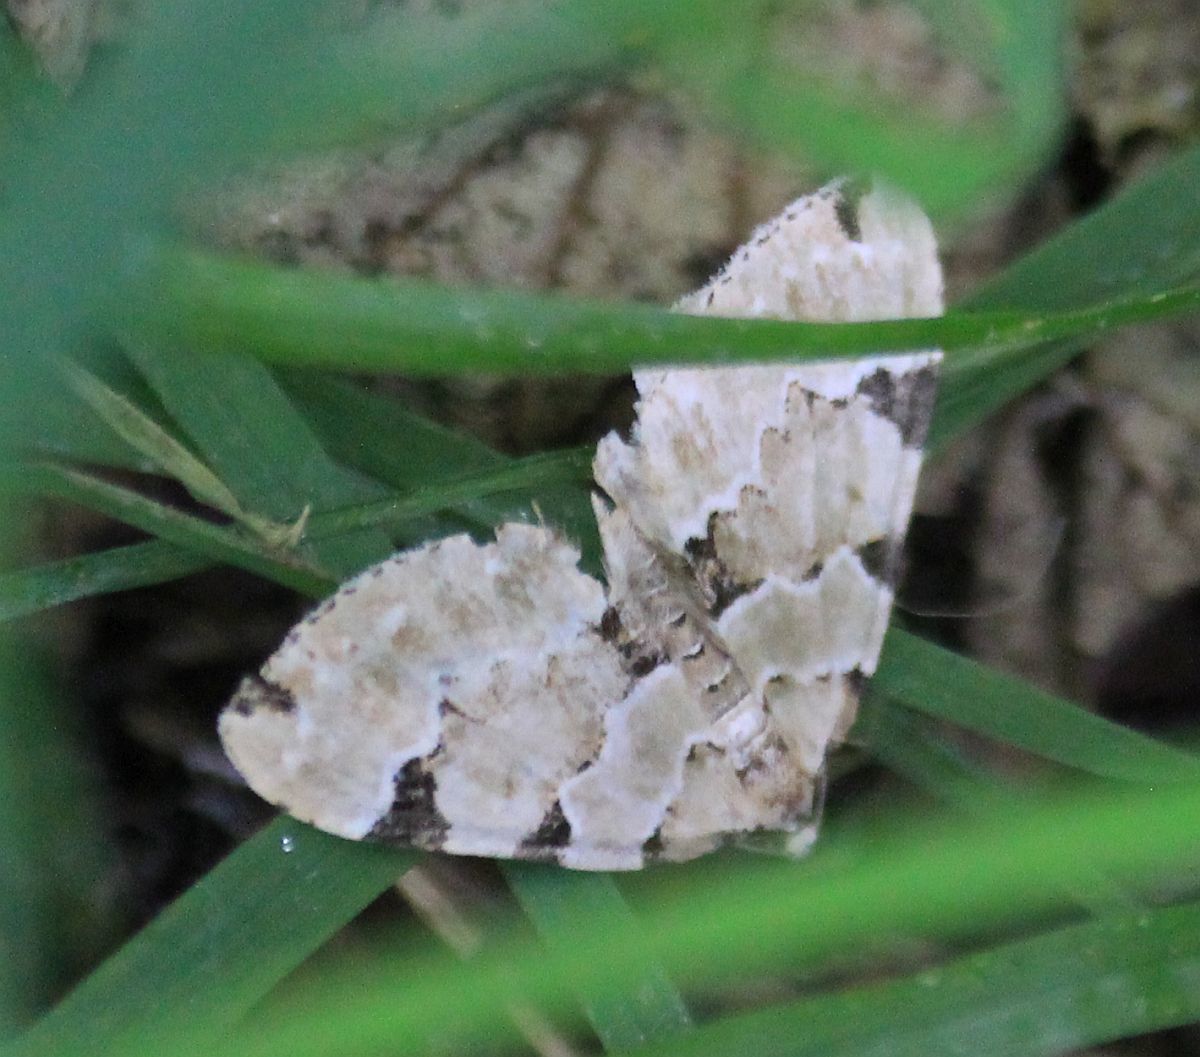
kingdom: Animalia
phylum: Arthropoda
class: Insecta
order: Lepidoptera
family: Geometridae
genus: Colostygia
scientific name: Colostygia pectinataria
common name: Green carpet
